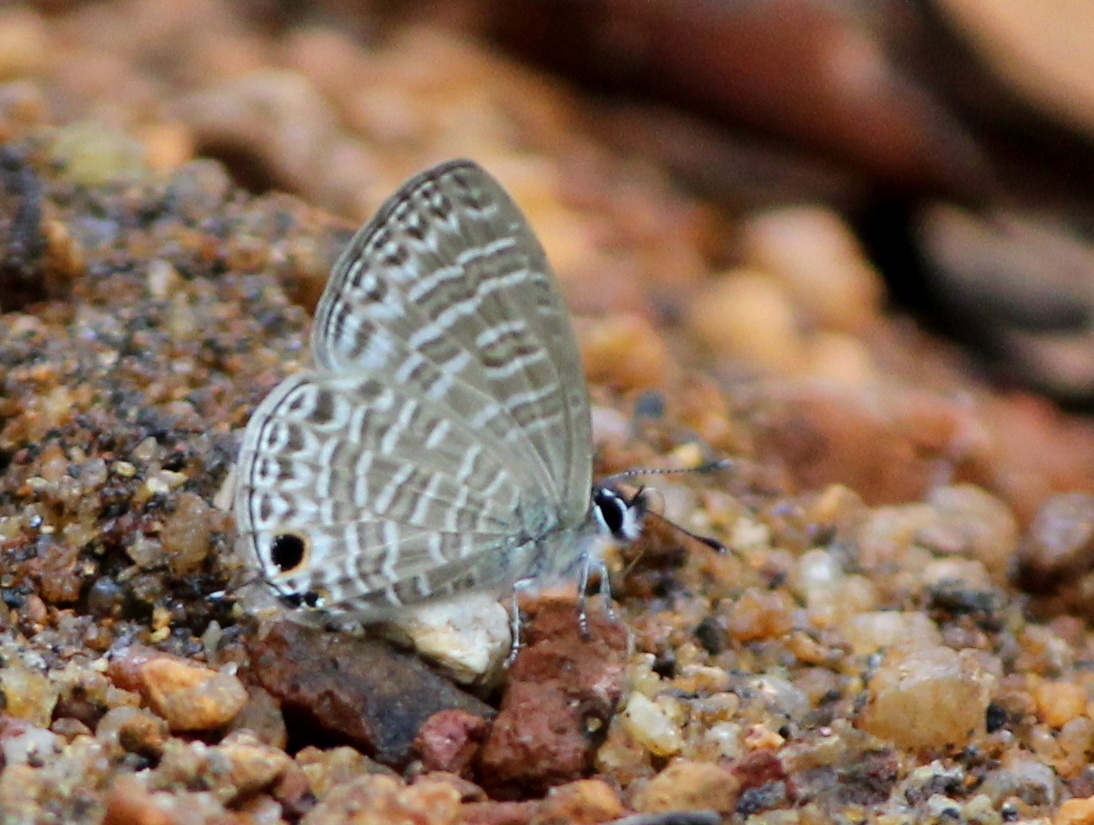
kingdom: Animalia
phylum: Arthropoda
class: Insecta
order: Lepidoptera
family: Lycaenidae
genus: Nacaduba
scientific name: Nacaduba sinhala
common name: Pale ceylon line blue
